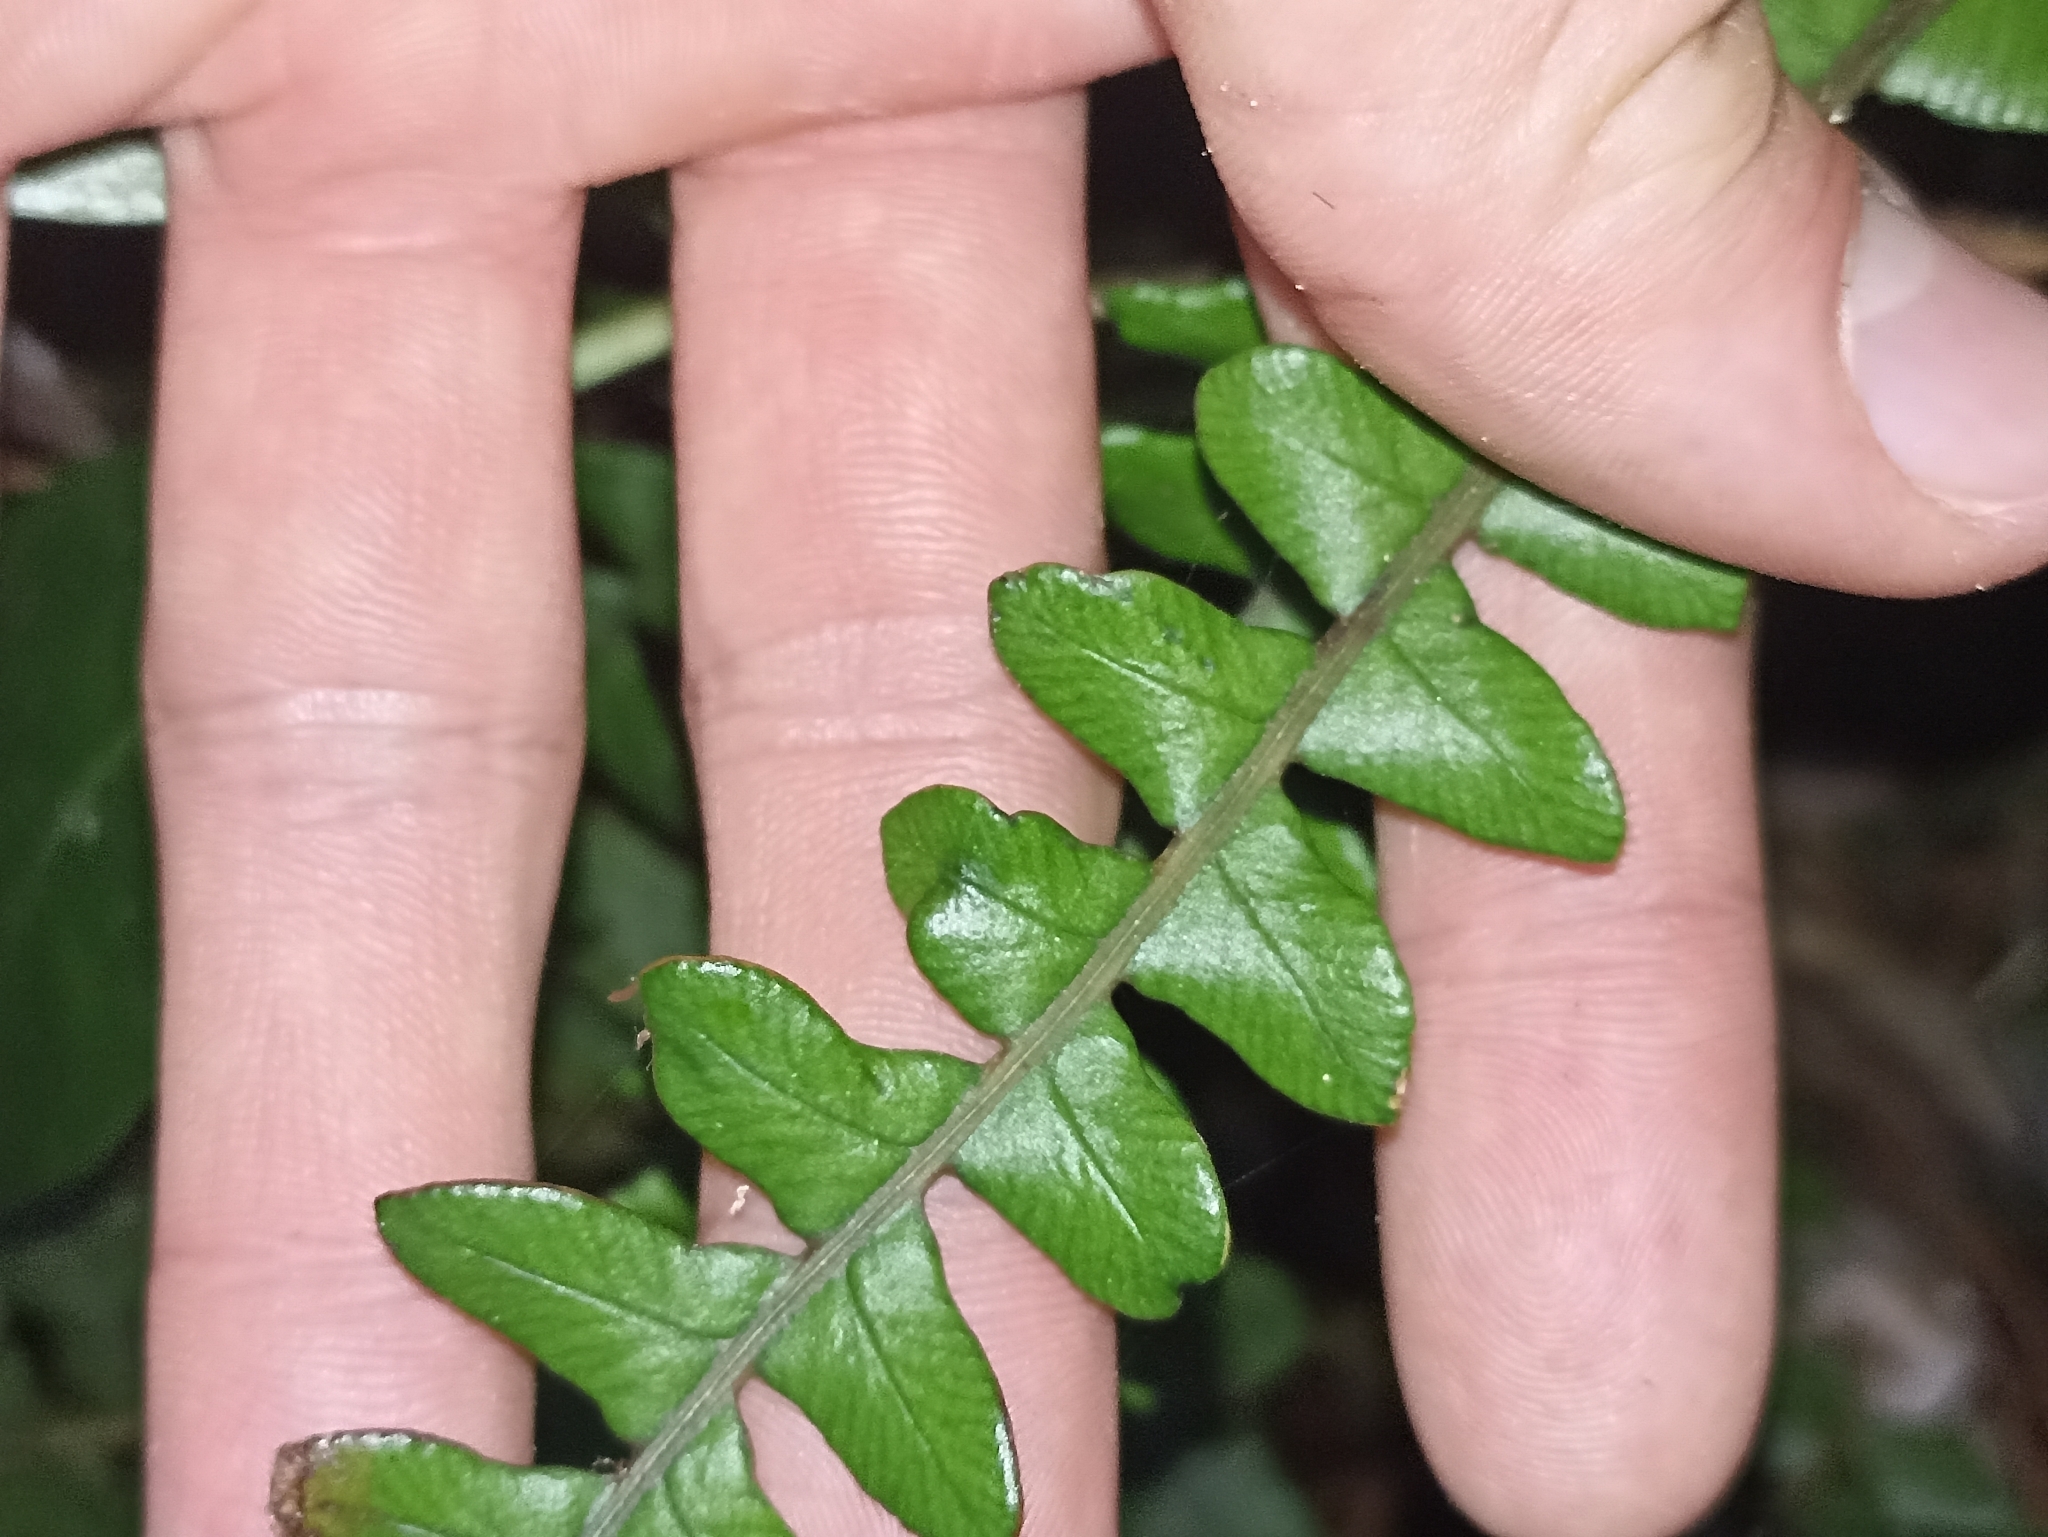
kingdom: Plantae
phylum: Tracheophyta
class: Polypodiopsida
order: Polypodiales
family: Blechnaceae
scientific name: Blechnaceae
